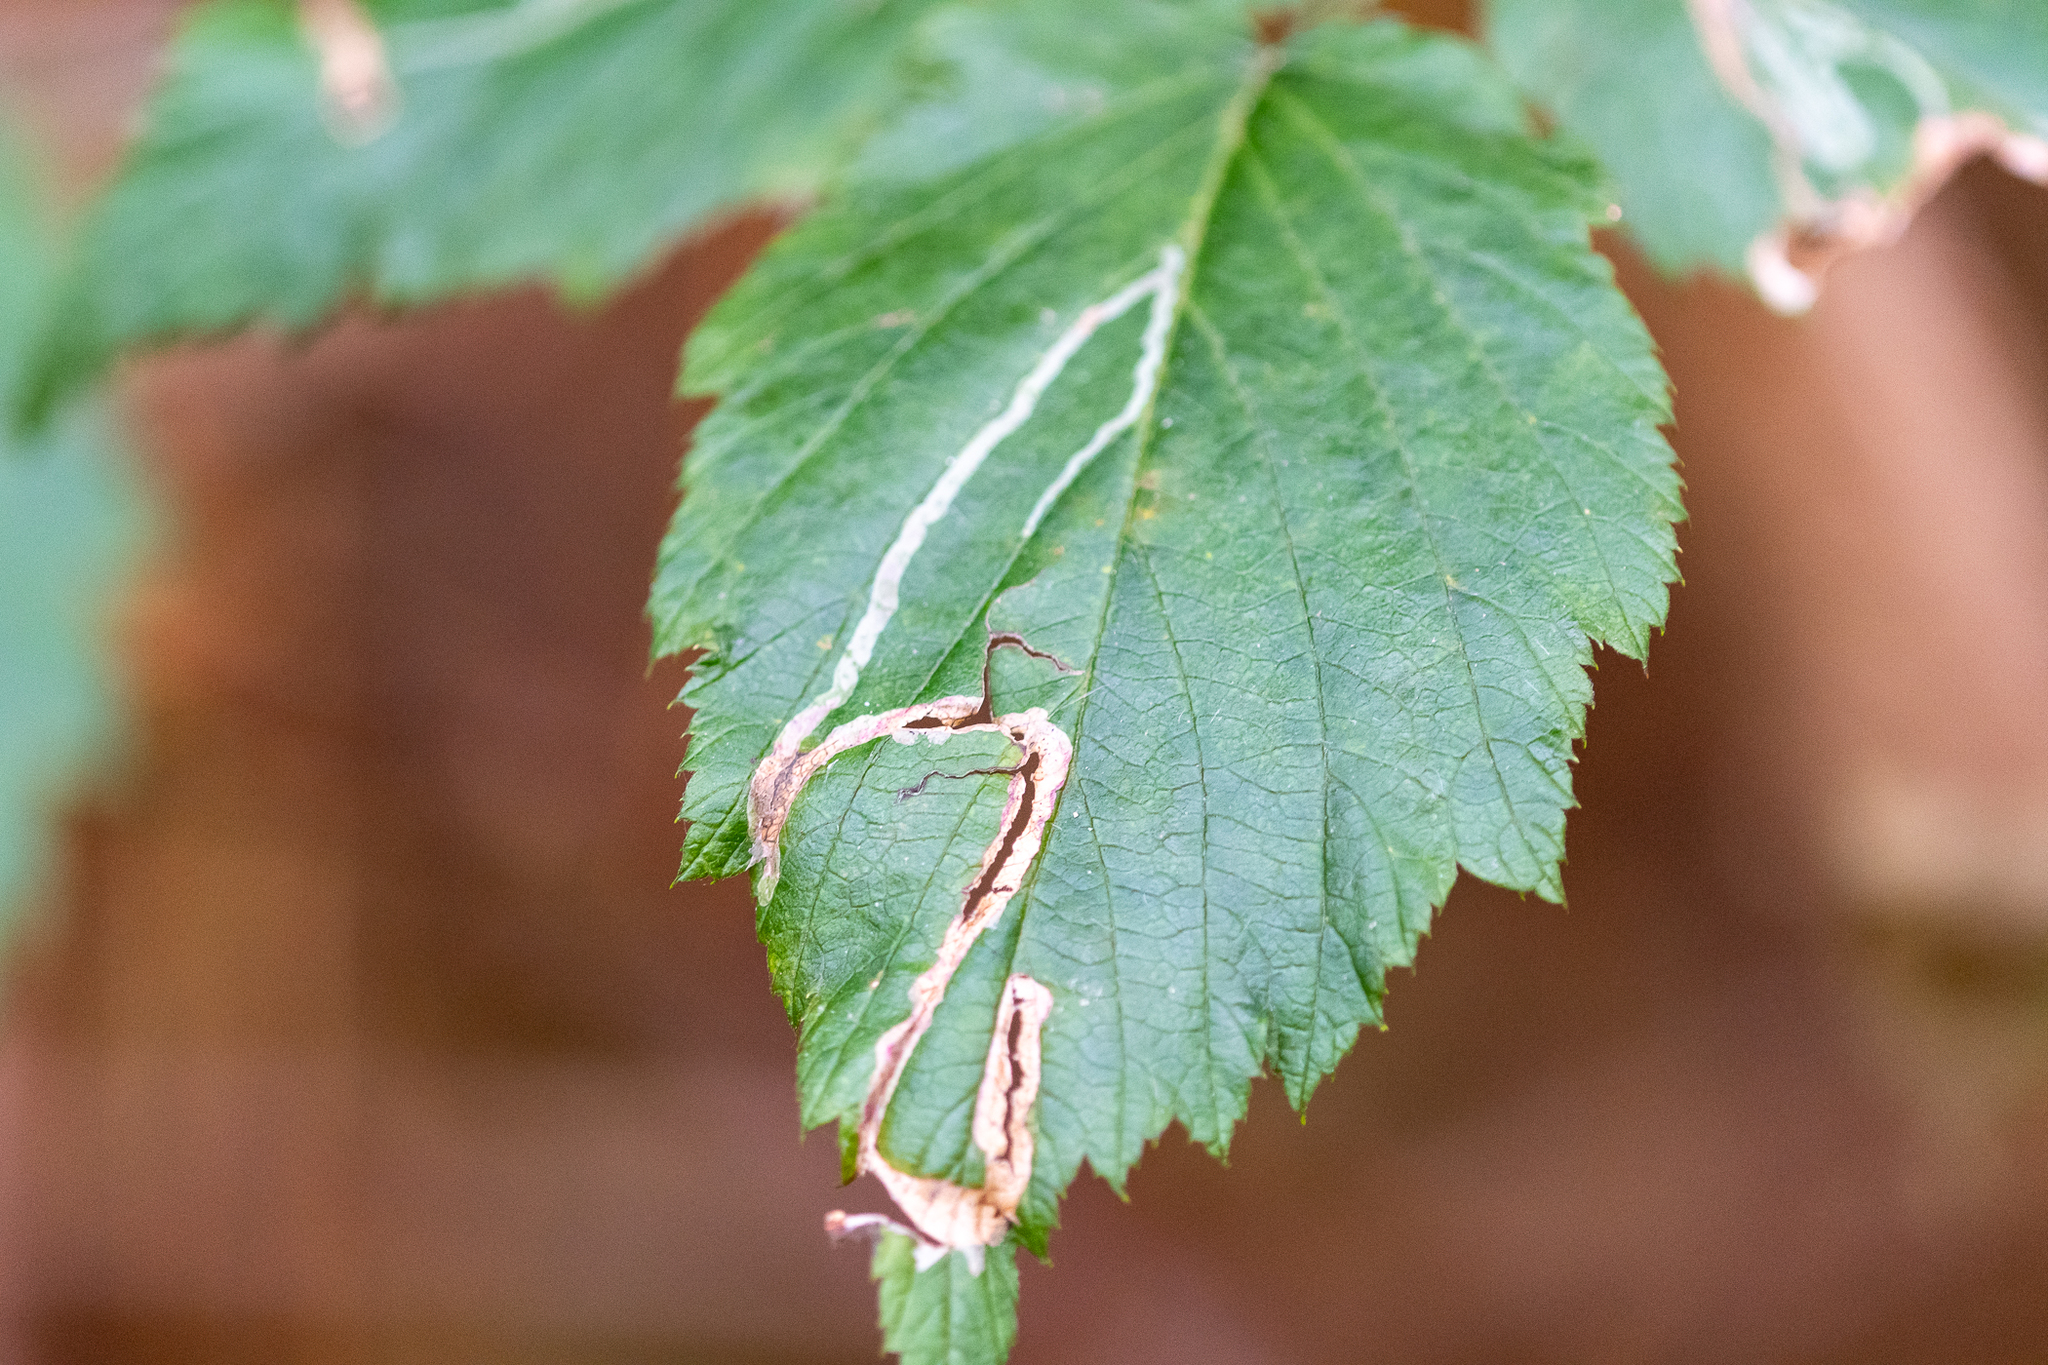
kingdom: Animalia
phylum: Arthropoda
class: Insecta
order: Diptera
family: Agromyzidae
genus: Agromyza
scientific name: Agromyza vockerothi
